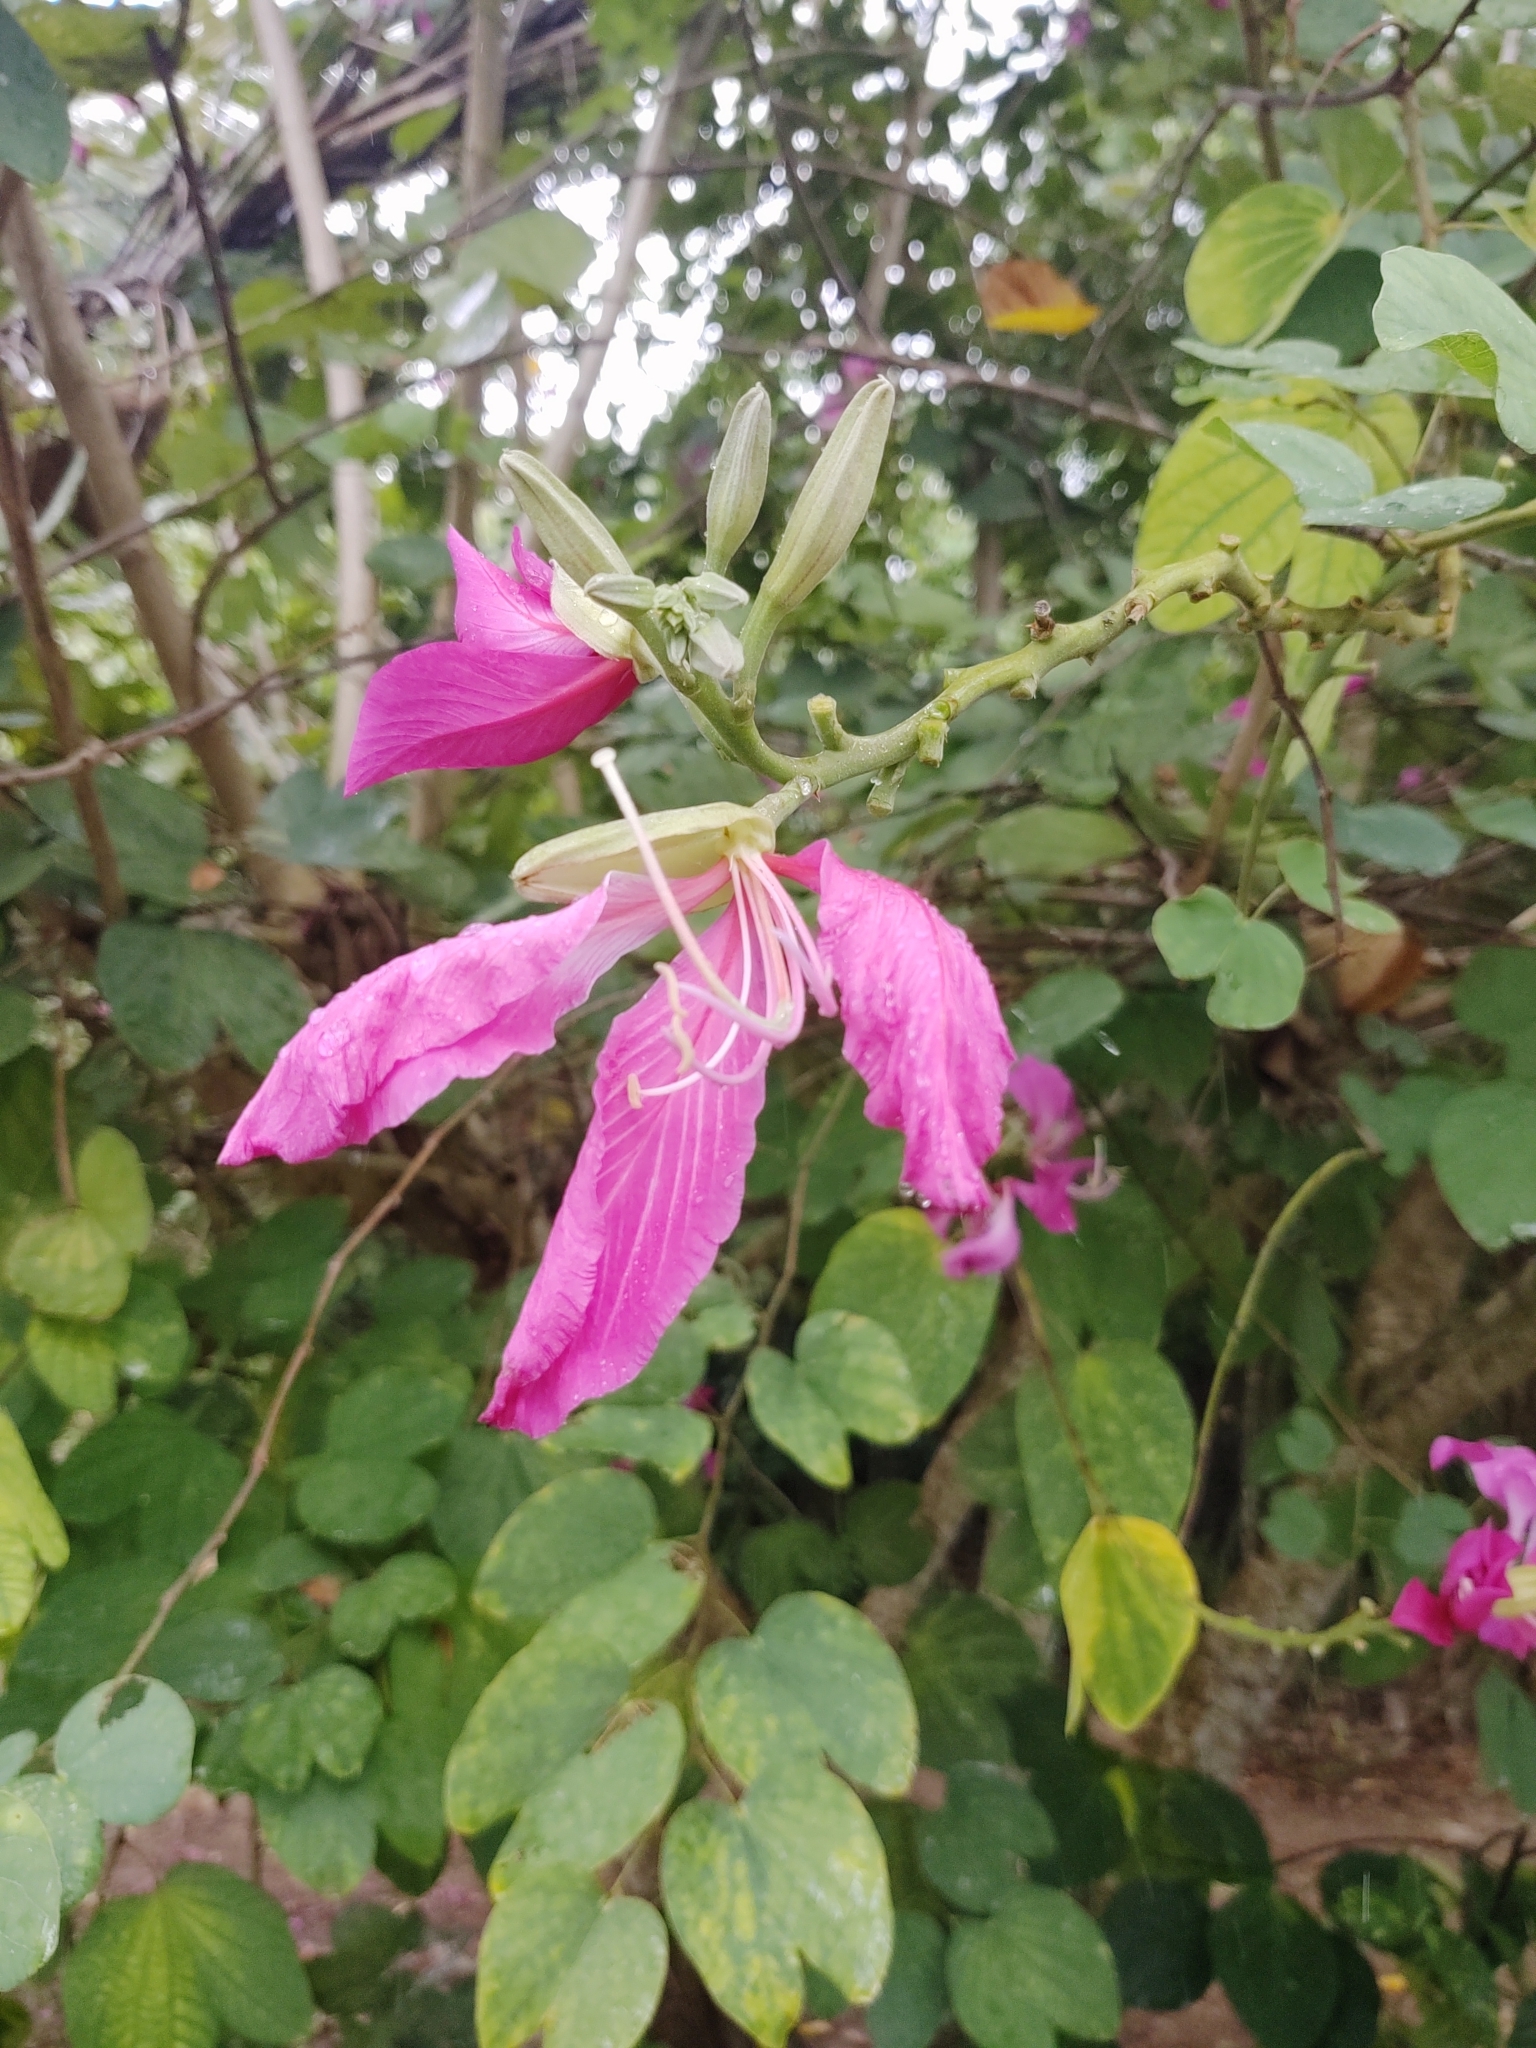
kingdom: Plantae
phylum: Tracheophyta
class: Magnoliopsida
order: Fabales
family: Fabaceae
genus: Bauhinia
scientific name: Bauhinia purpurea
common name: Butterfly-tree
